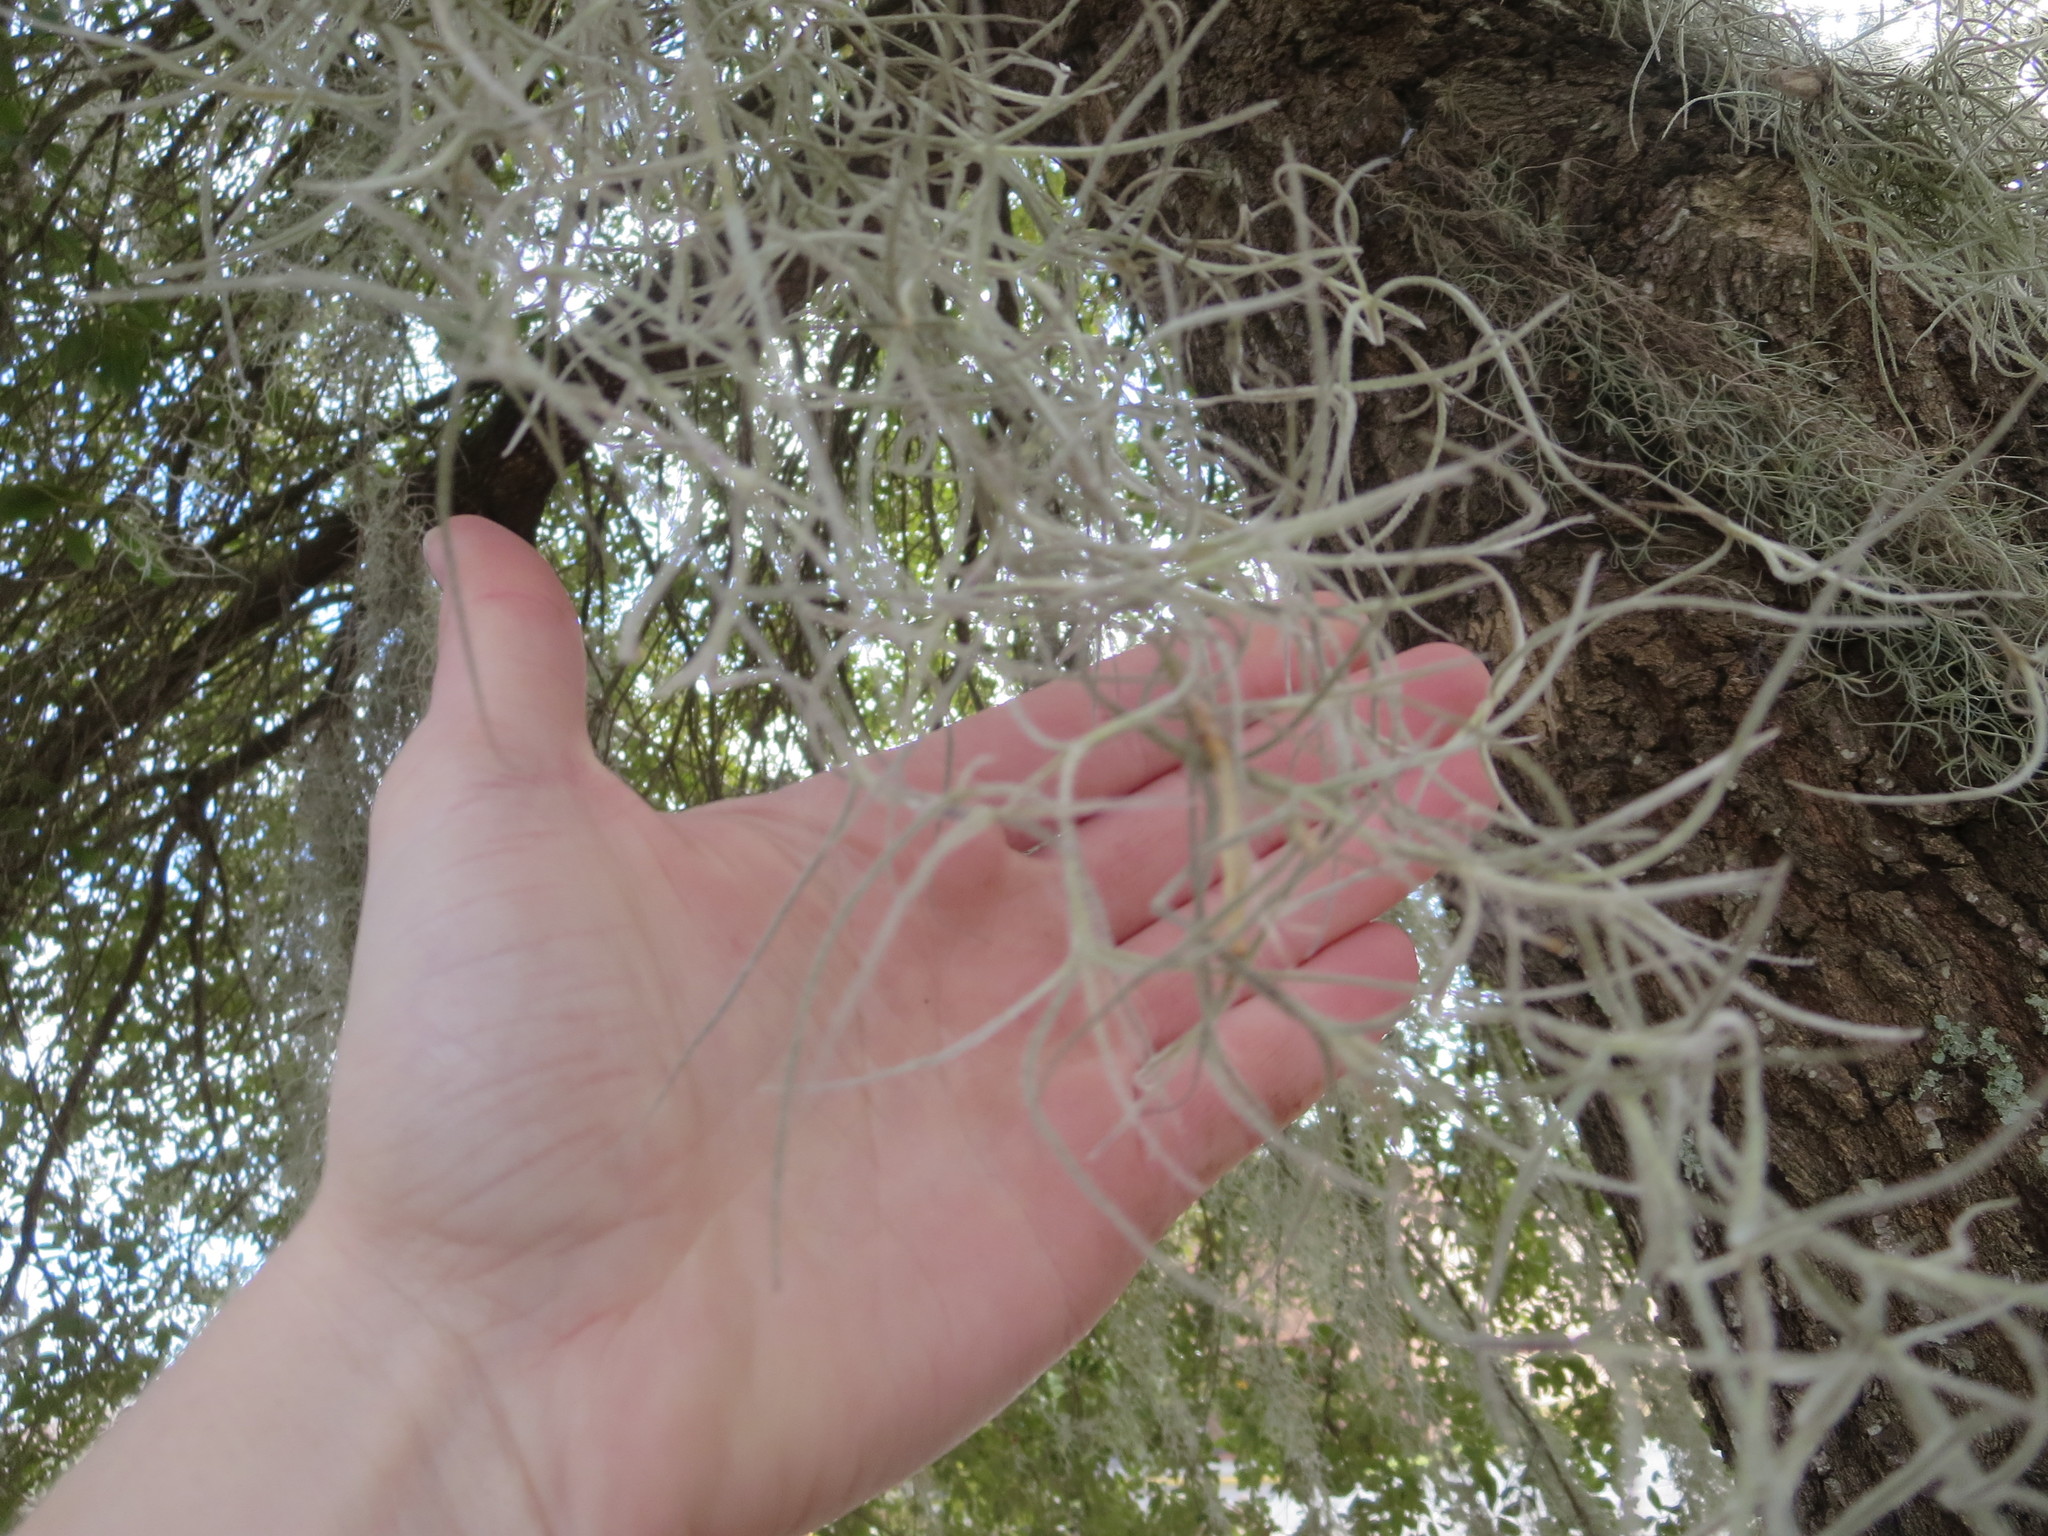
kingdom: Plantae
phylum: Tracheophyta
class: Liliopsida
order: Poales
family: Bromeliaceae
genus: Tillandsia
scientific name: Tillandsia usneoides
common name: Spanish moss
